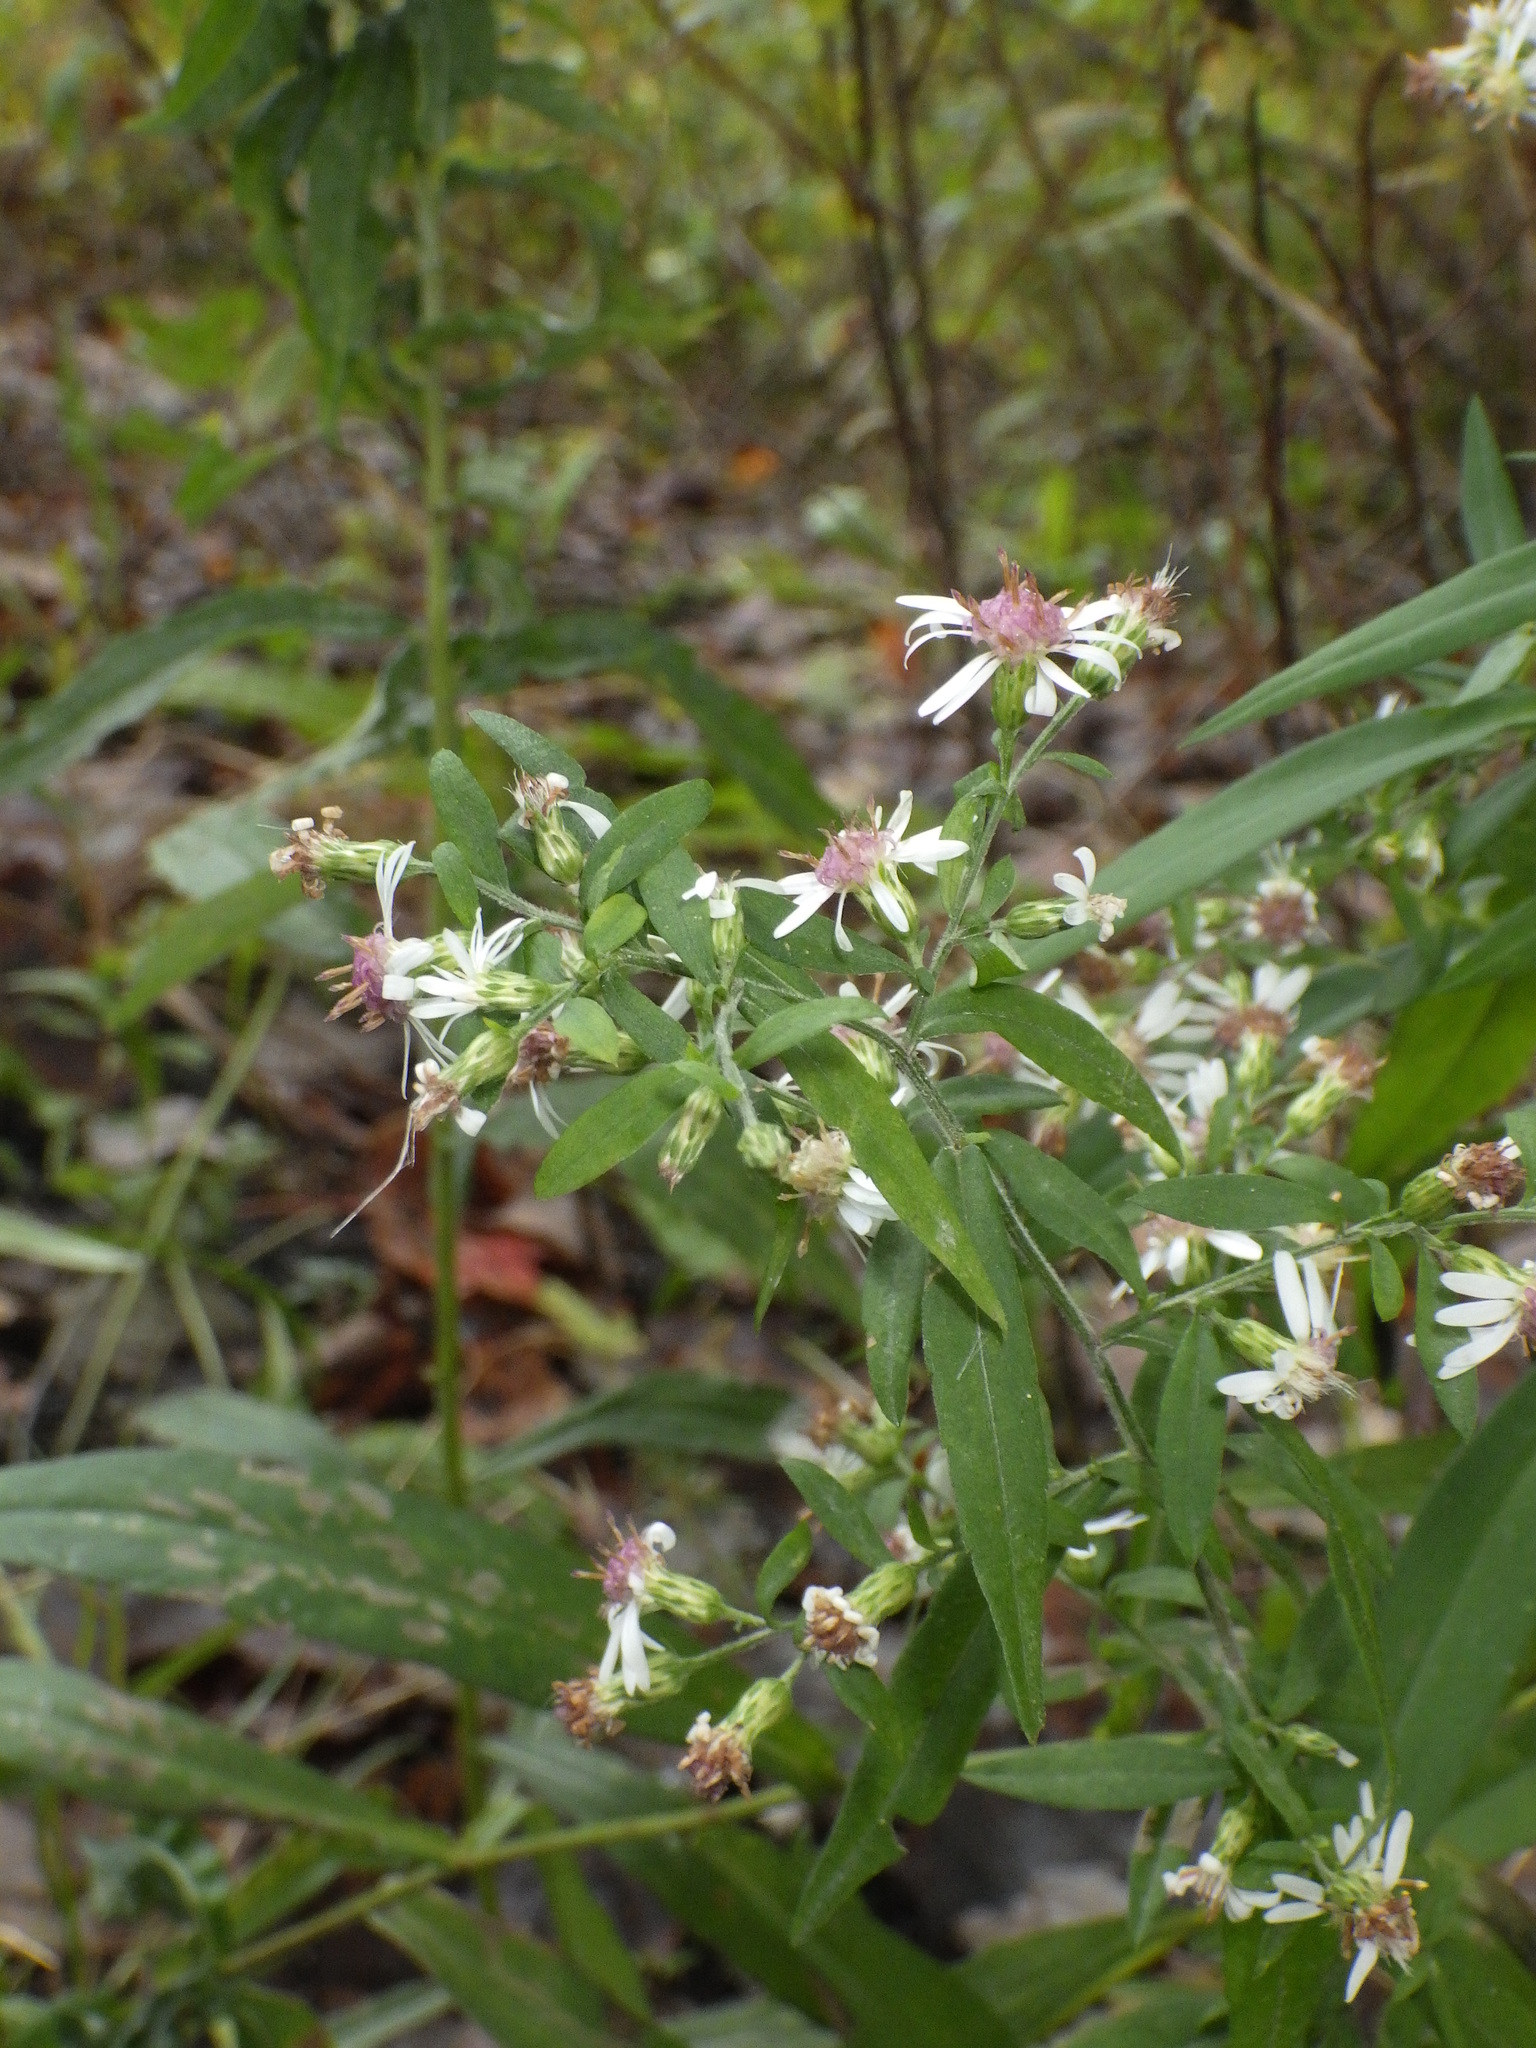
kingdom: Plantae
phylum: Tracheophyta
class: Magnoliopsida
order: Asterales
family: Asteraceae
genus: Symphyotrichum
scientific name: Symphyotrichum lateriflorum
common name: Calico aster
